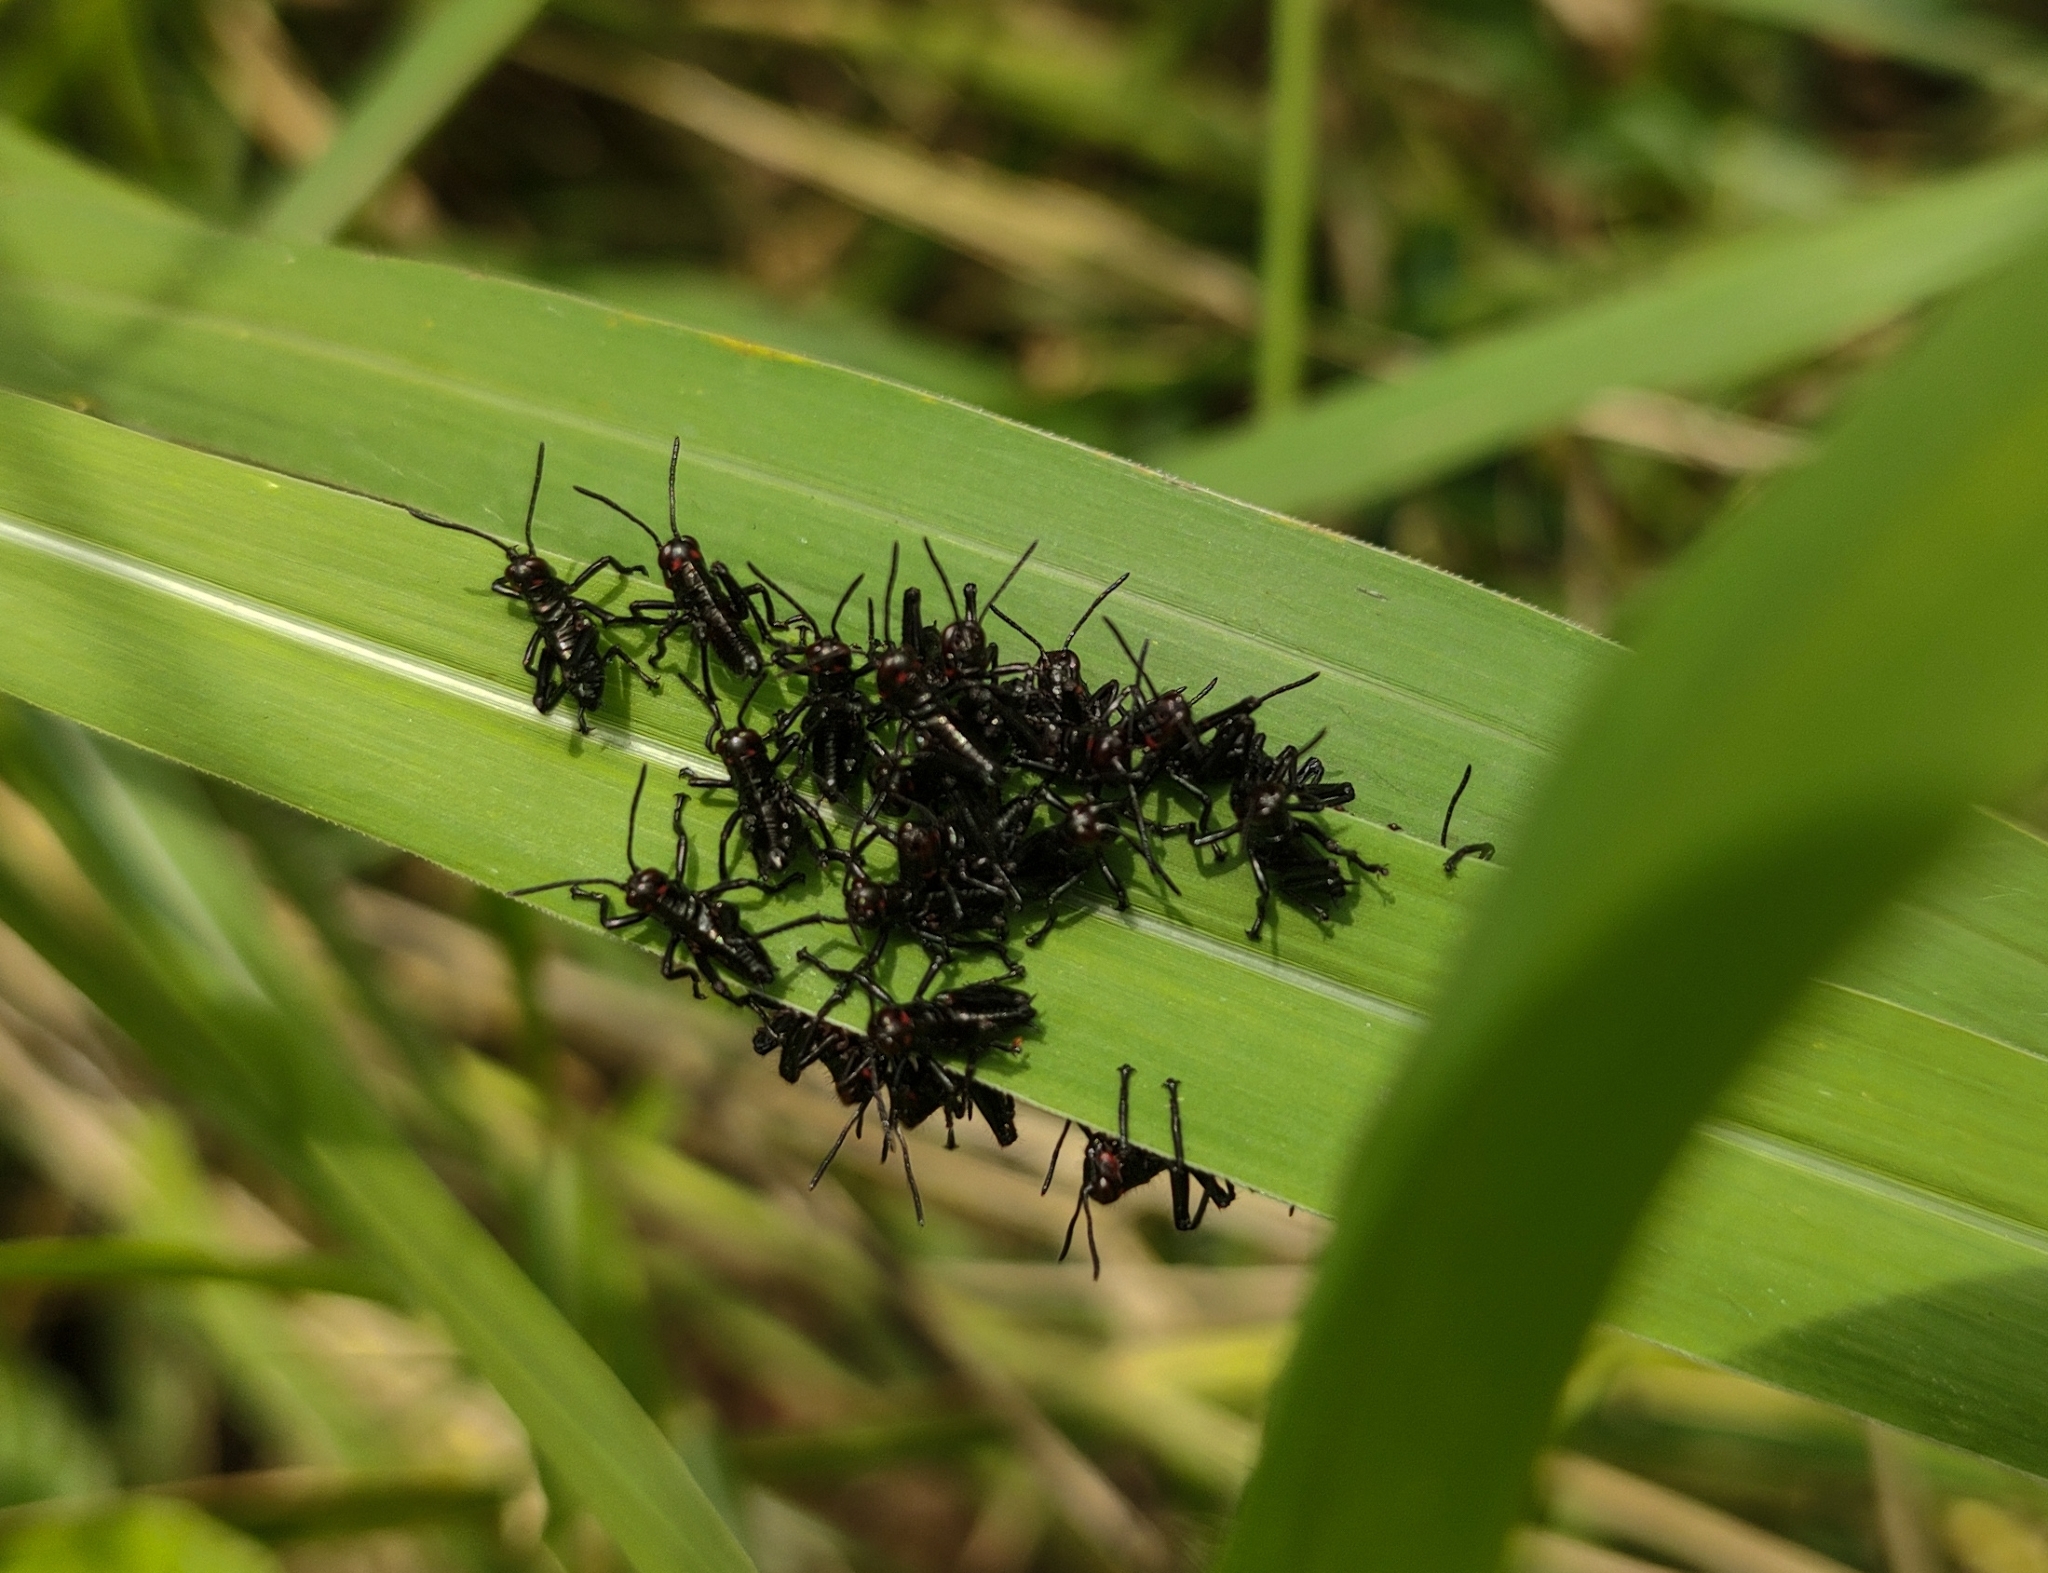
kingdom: Animalia
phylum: Arthropoda
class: Insecta
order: Orthoptera
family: Romaleidae
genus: Chromacris
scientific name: Chromacris speciosa
